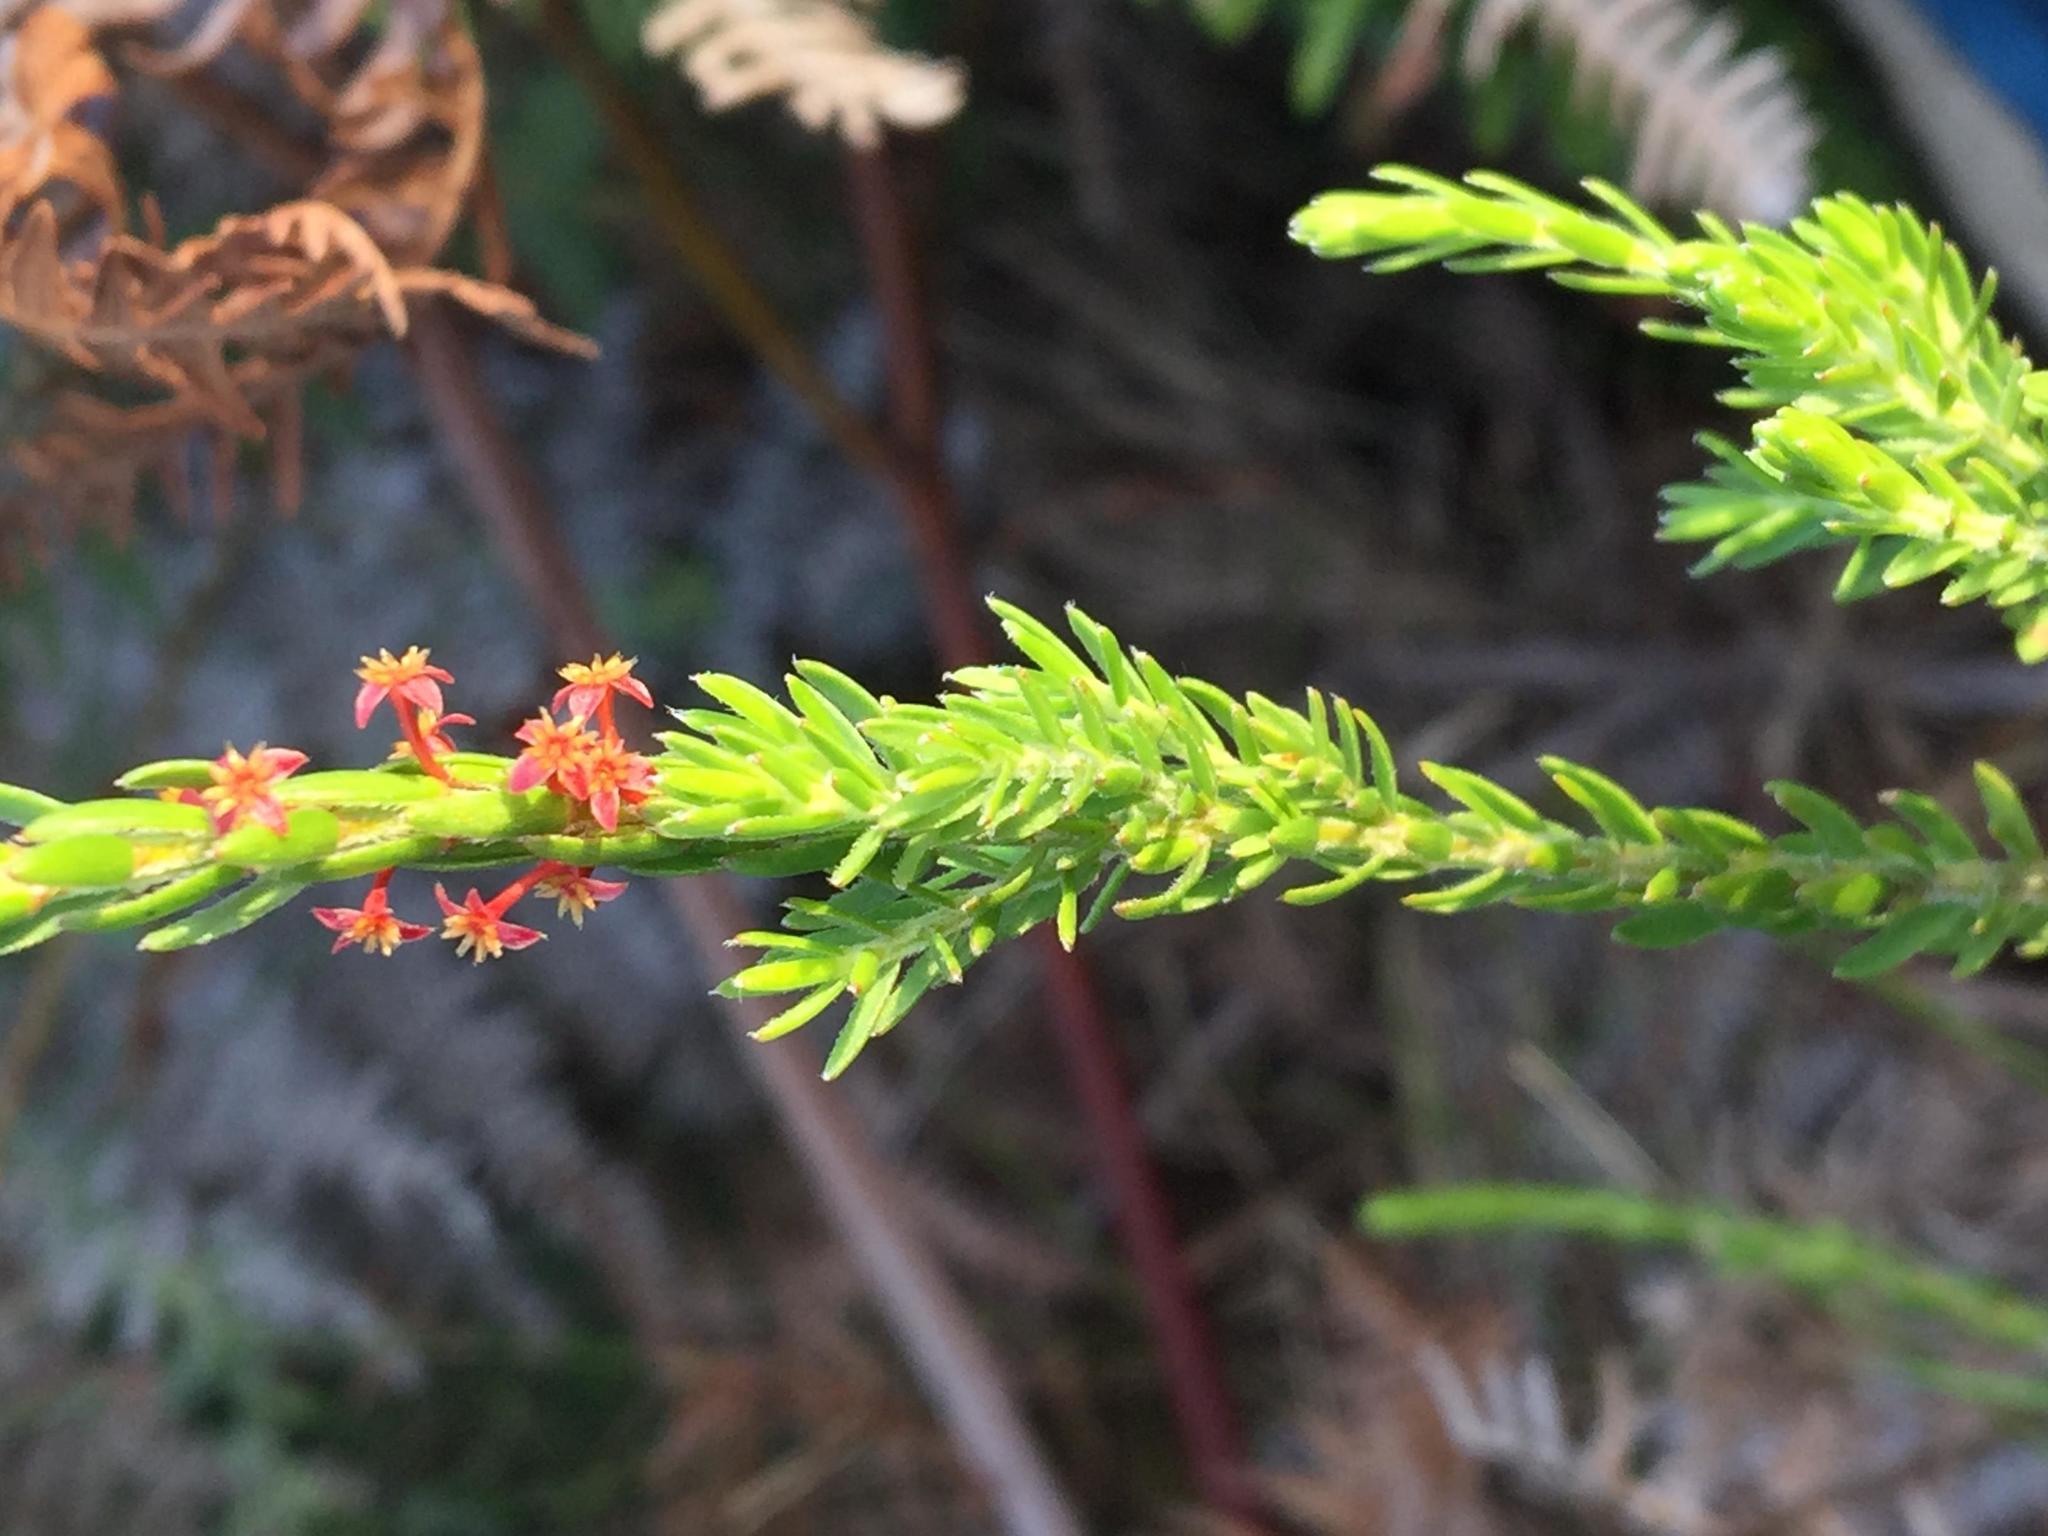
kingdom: Plantae
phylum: Tracheophyta
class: Magnoliopsida
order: Malvales
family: Thymelaeaceae
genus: Struthiola
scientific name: Struthiola parviflora
